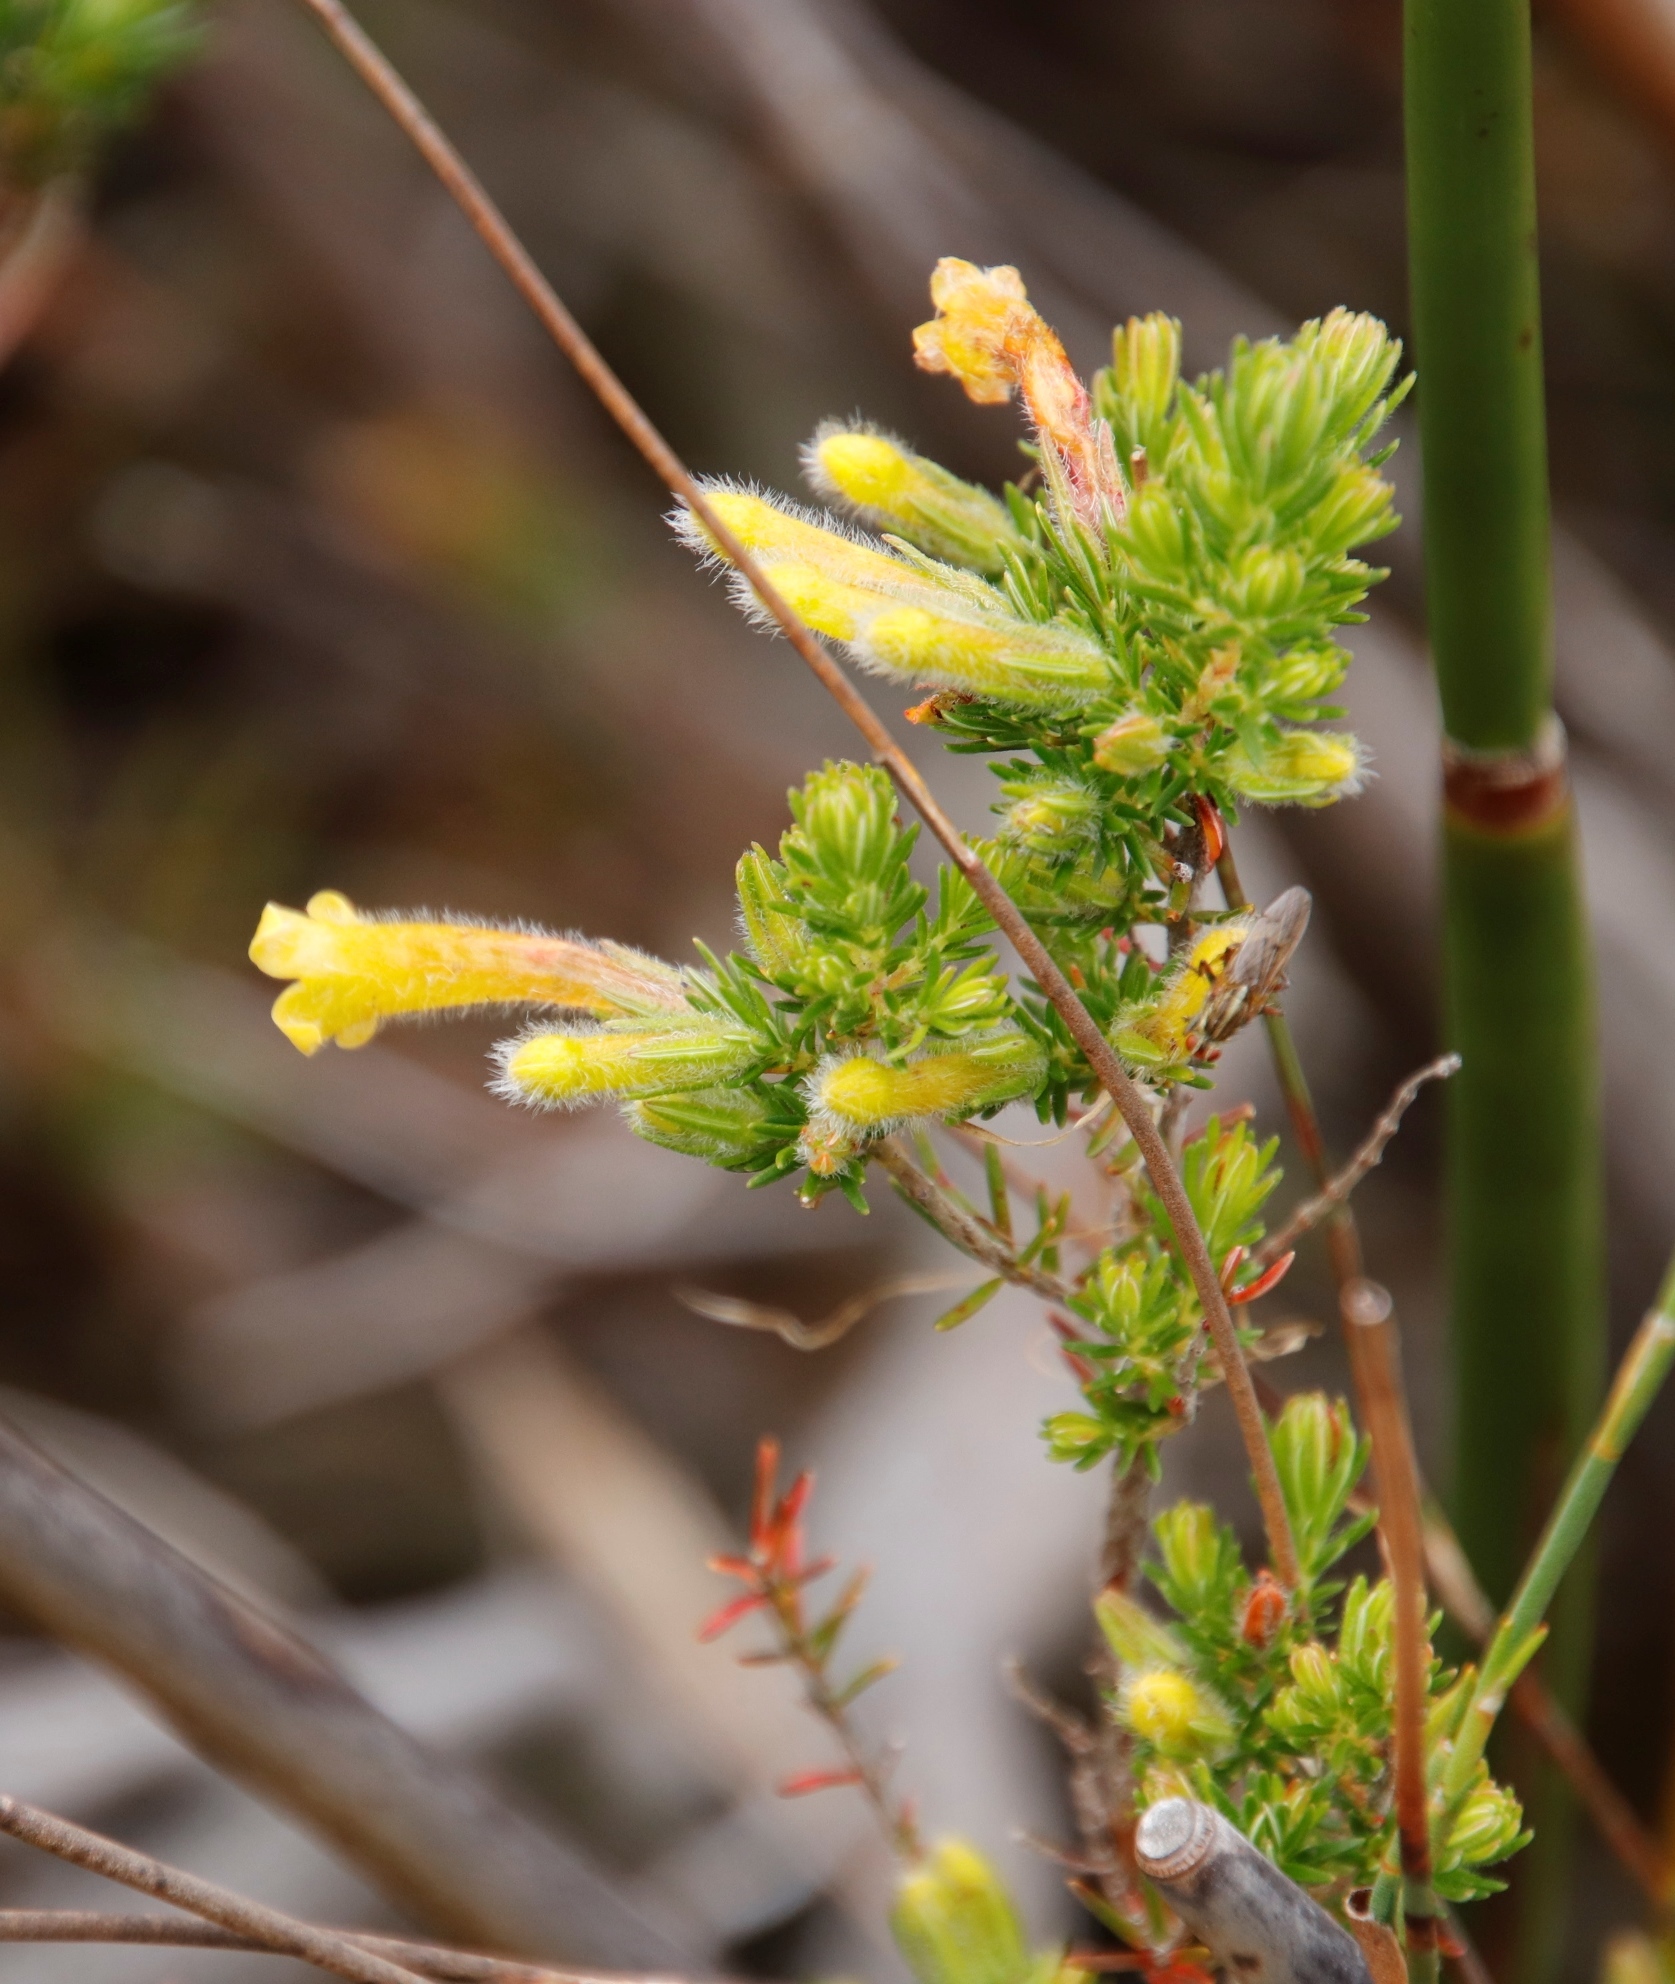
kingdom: Plantae
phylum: Tracheophyta
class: Magnoliopsida
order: Ericales
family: Ericaceae
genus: Erica
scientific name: Erica curviflora
